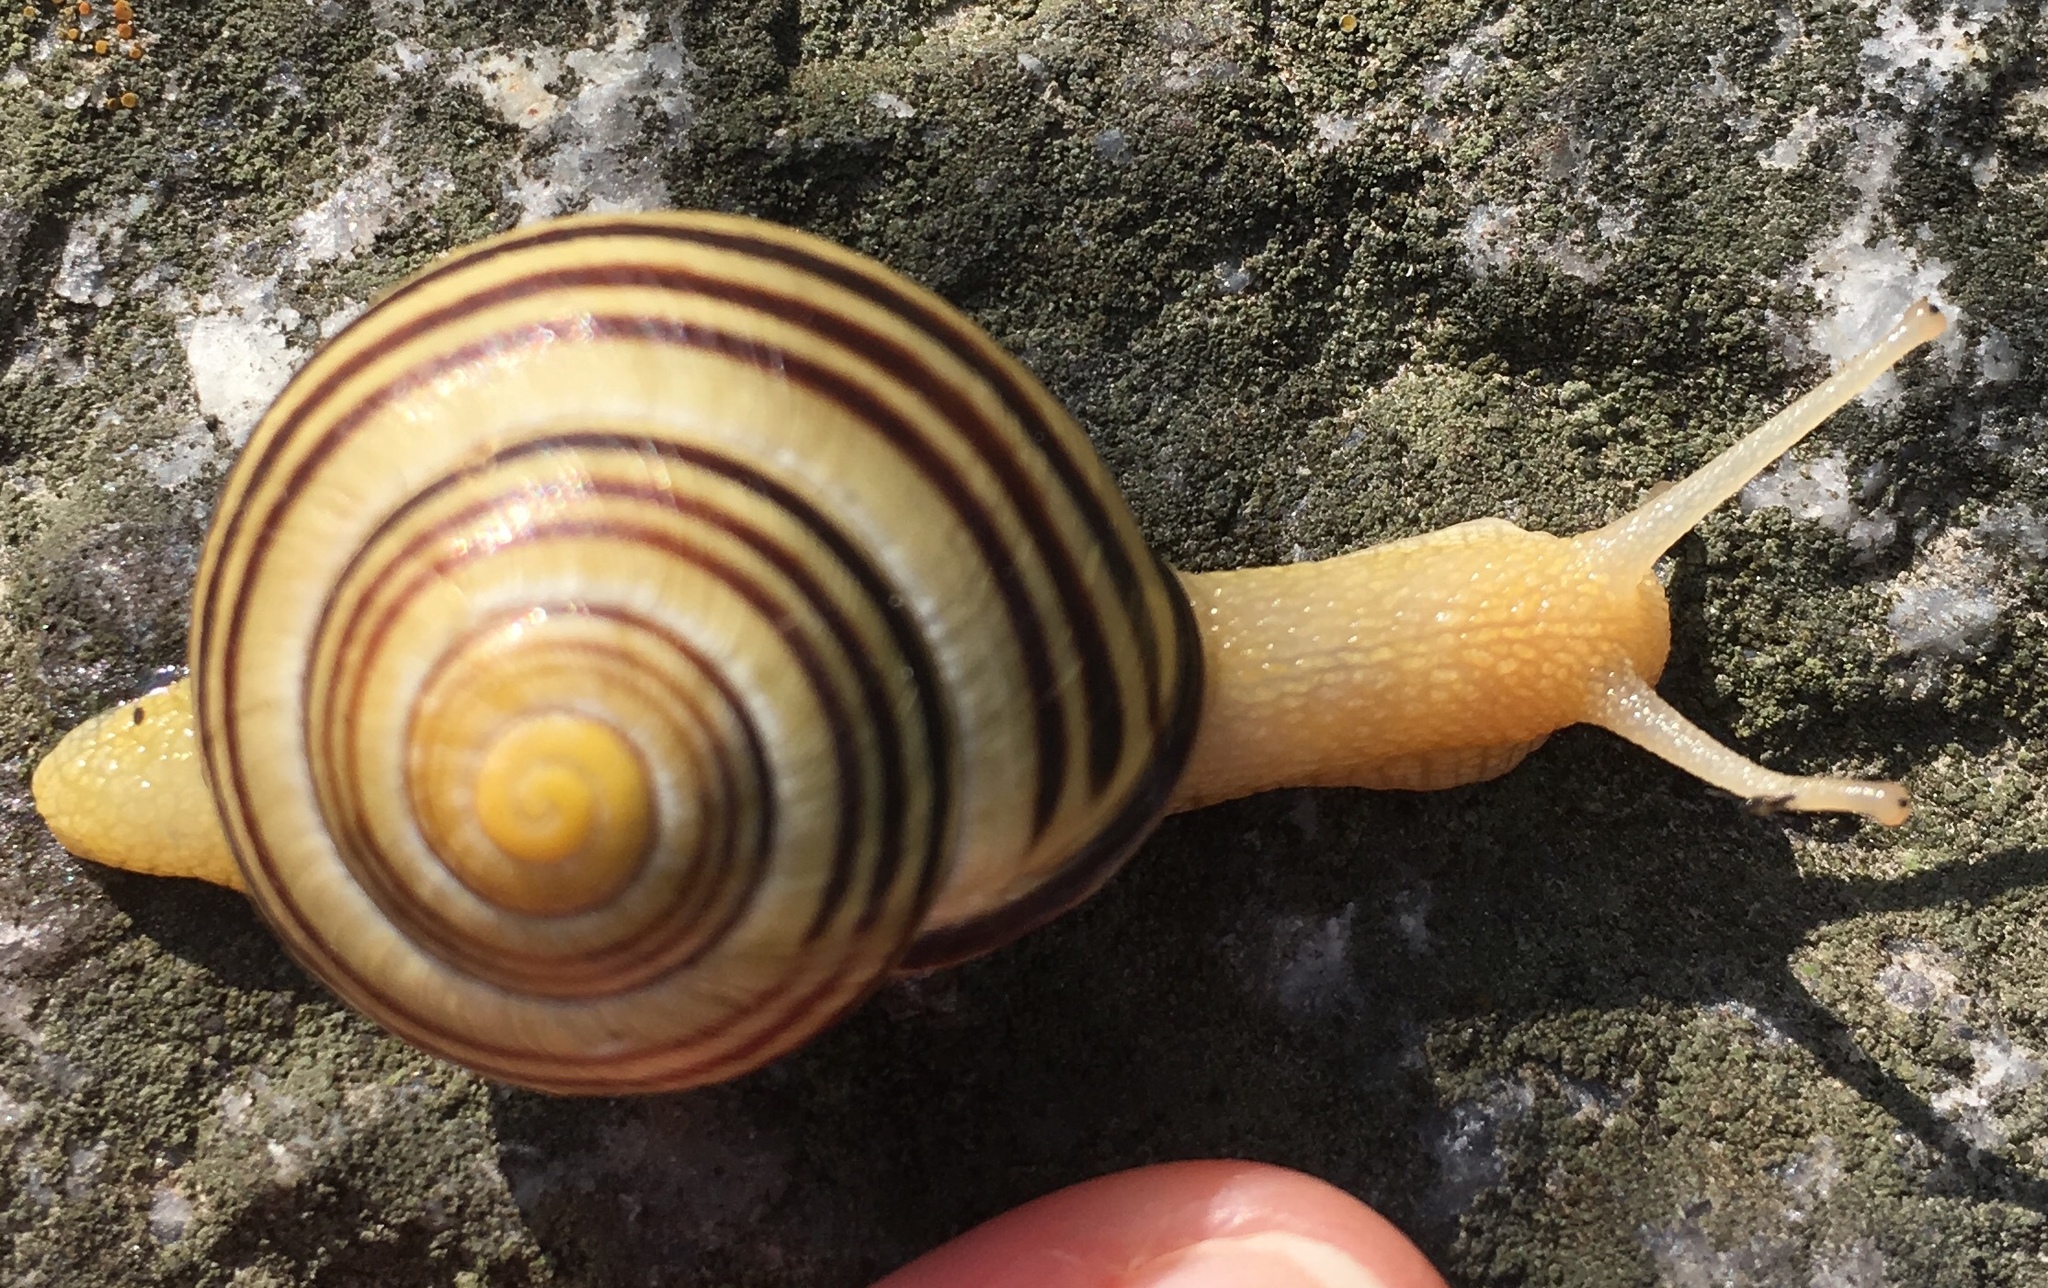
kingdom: Animalia
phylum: Mollusca
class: Gastropoda
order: Stylommatophora
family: Helicidae
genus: Cepaea
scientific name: Cepaea nemoralis
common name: Grovesnail
